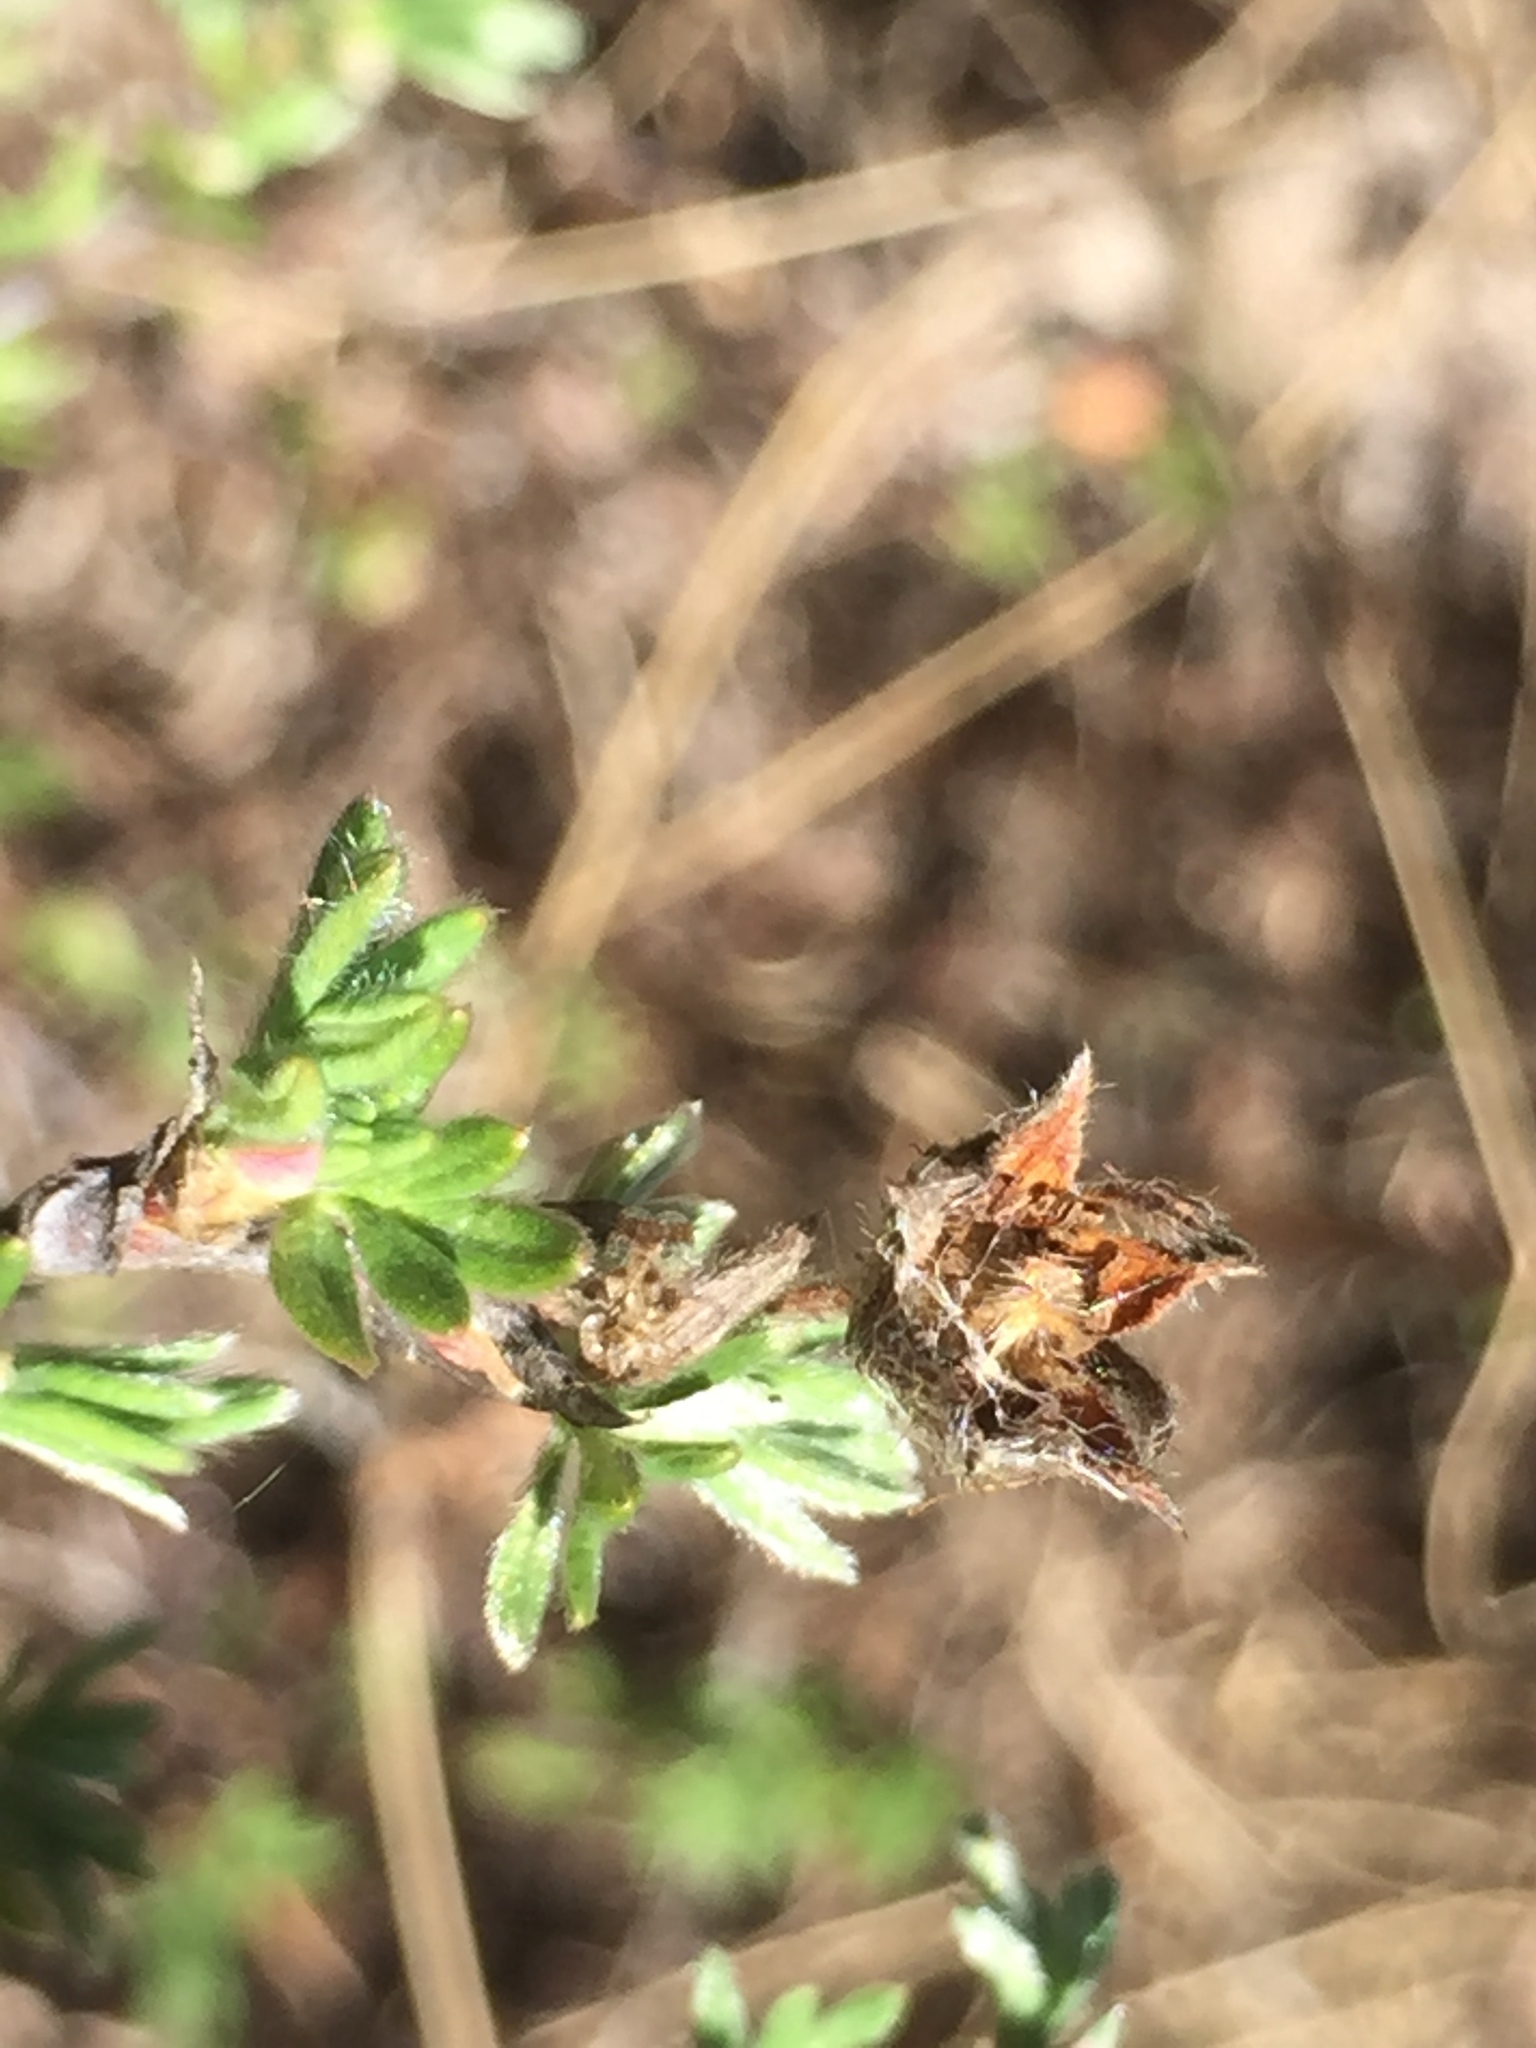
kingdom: Plantae
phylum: Tracheophyta
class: Magnoliopsida
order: Rosales
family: Rosaceae
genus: Dasiphora
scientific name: Dasiphora fruticosa
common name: Shrubby cinquefoil
